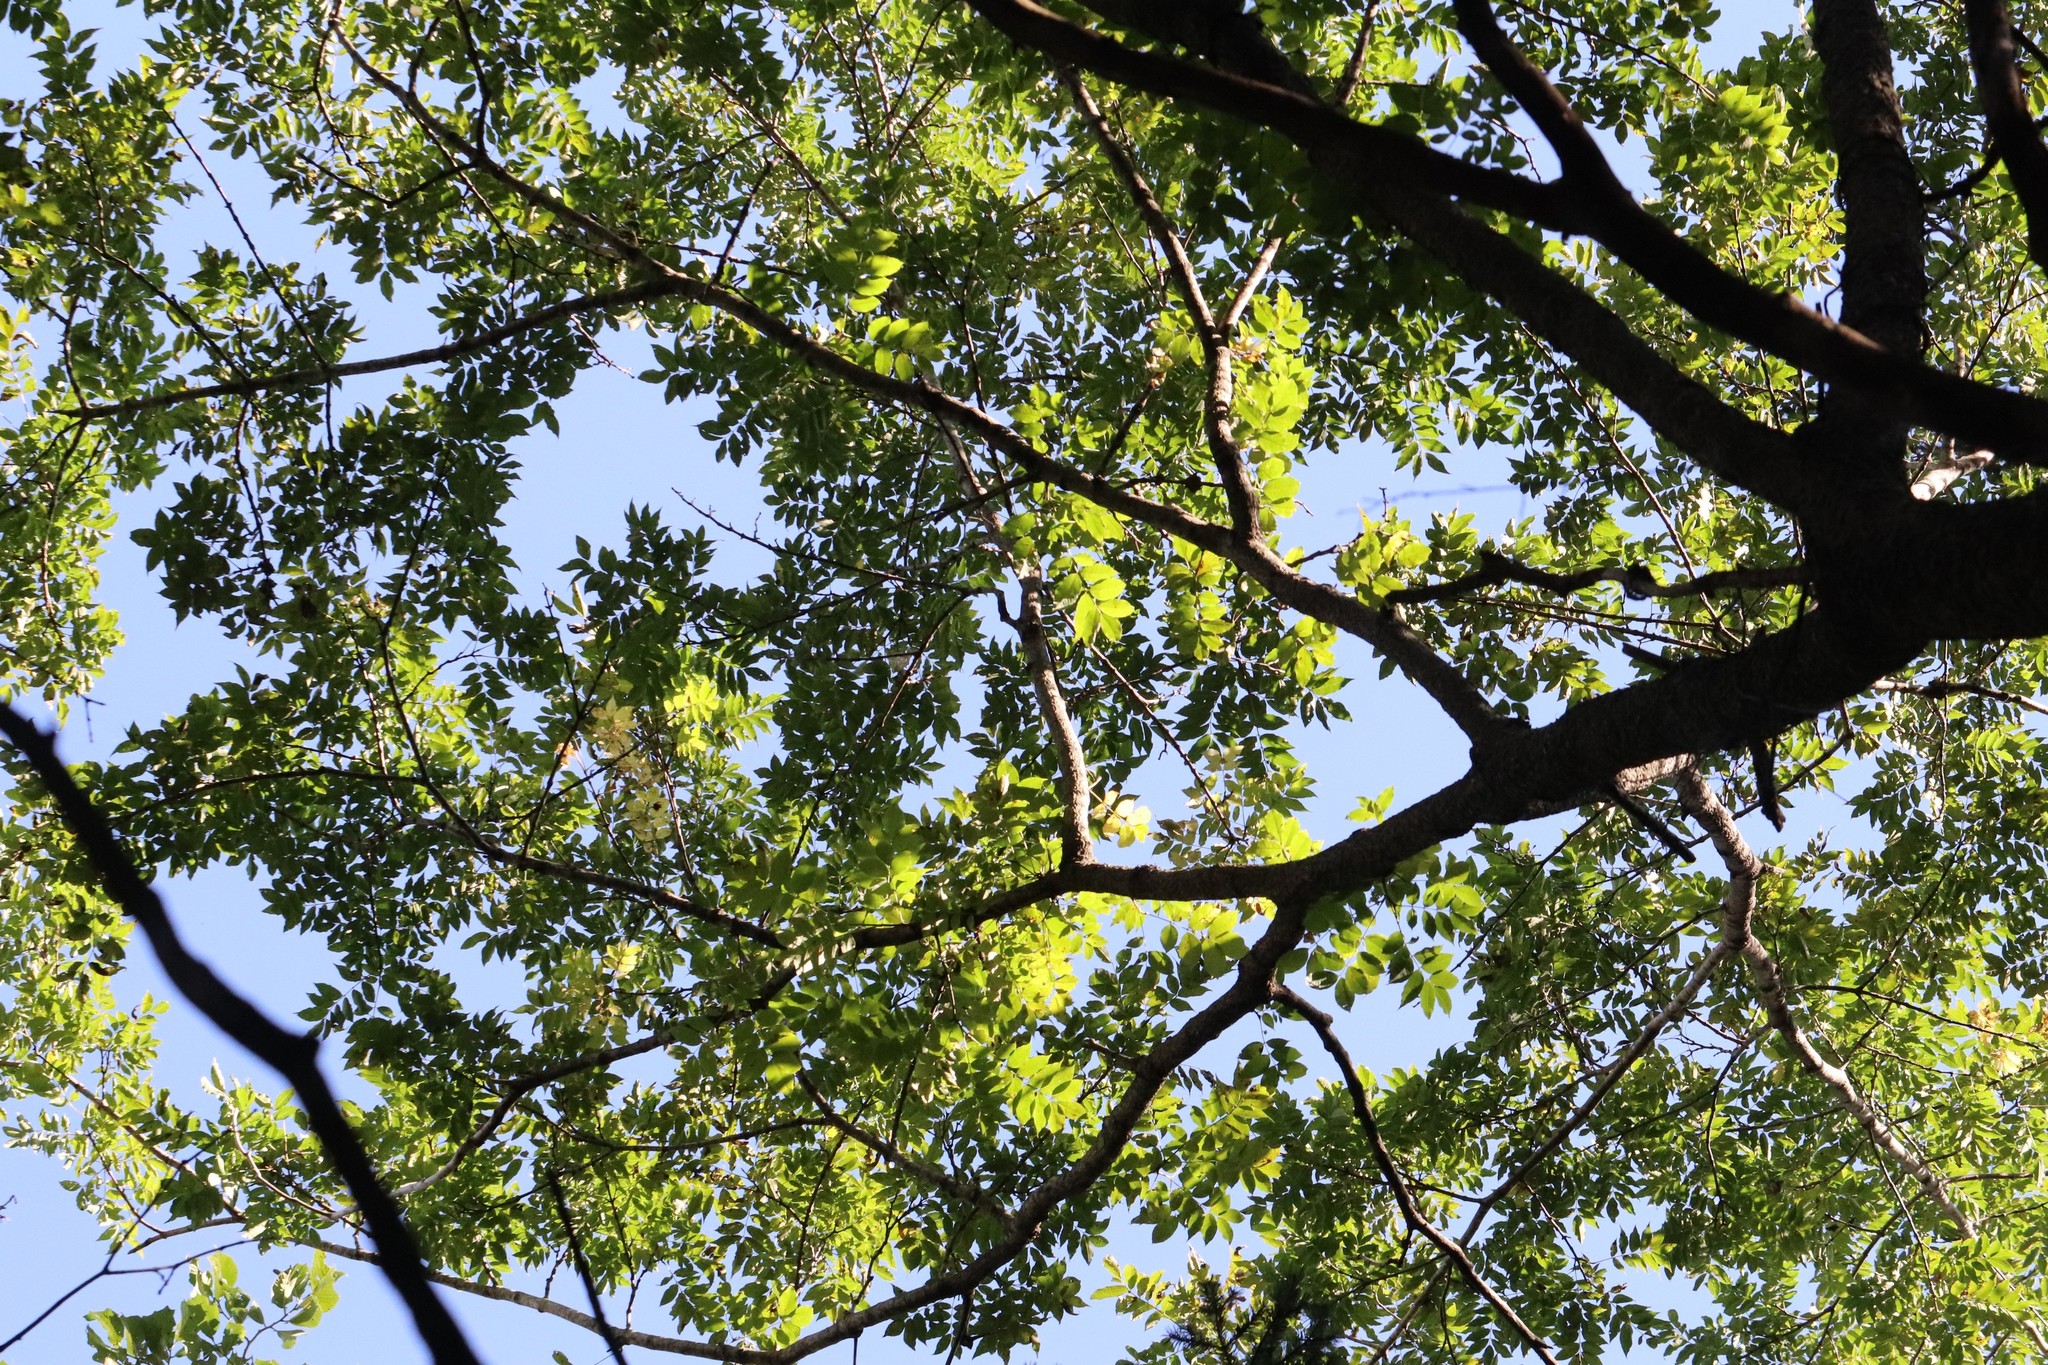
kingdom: Plantae
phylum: Tracheophyta
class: Magnoliopsida
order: Sapindales
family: Rutaceae
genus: Phellodendron
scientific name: Phellodendron amurense
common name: Amur corktree
